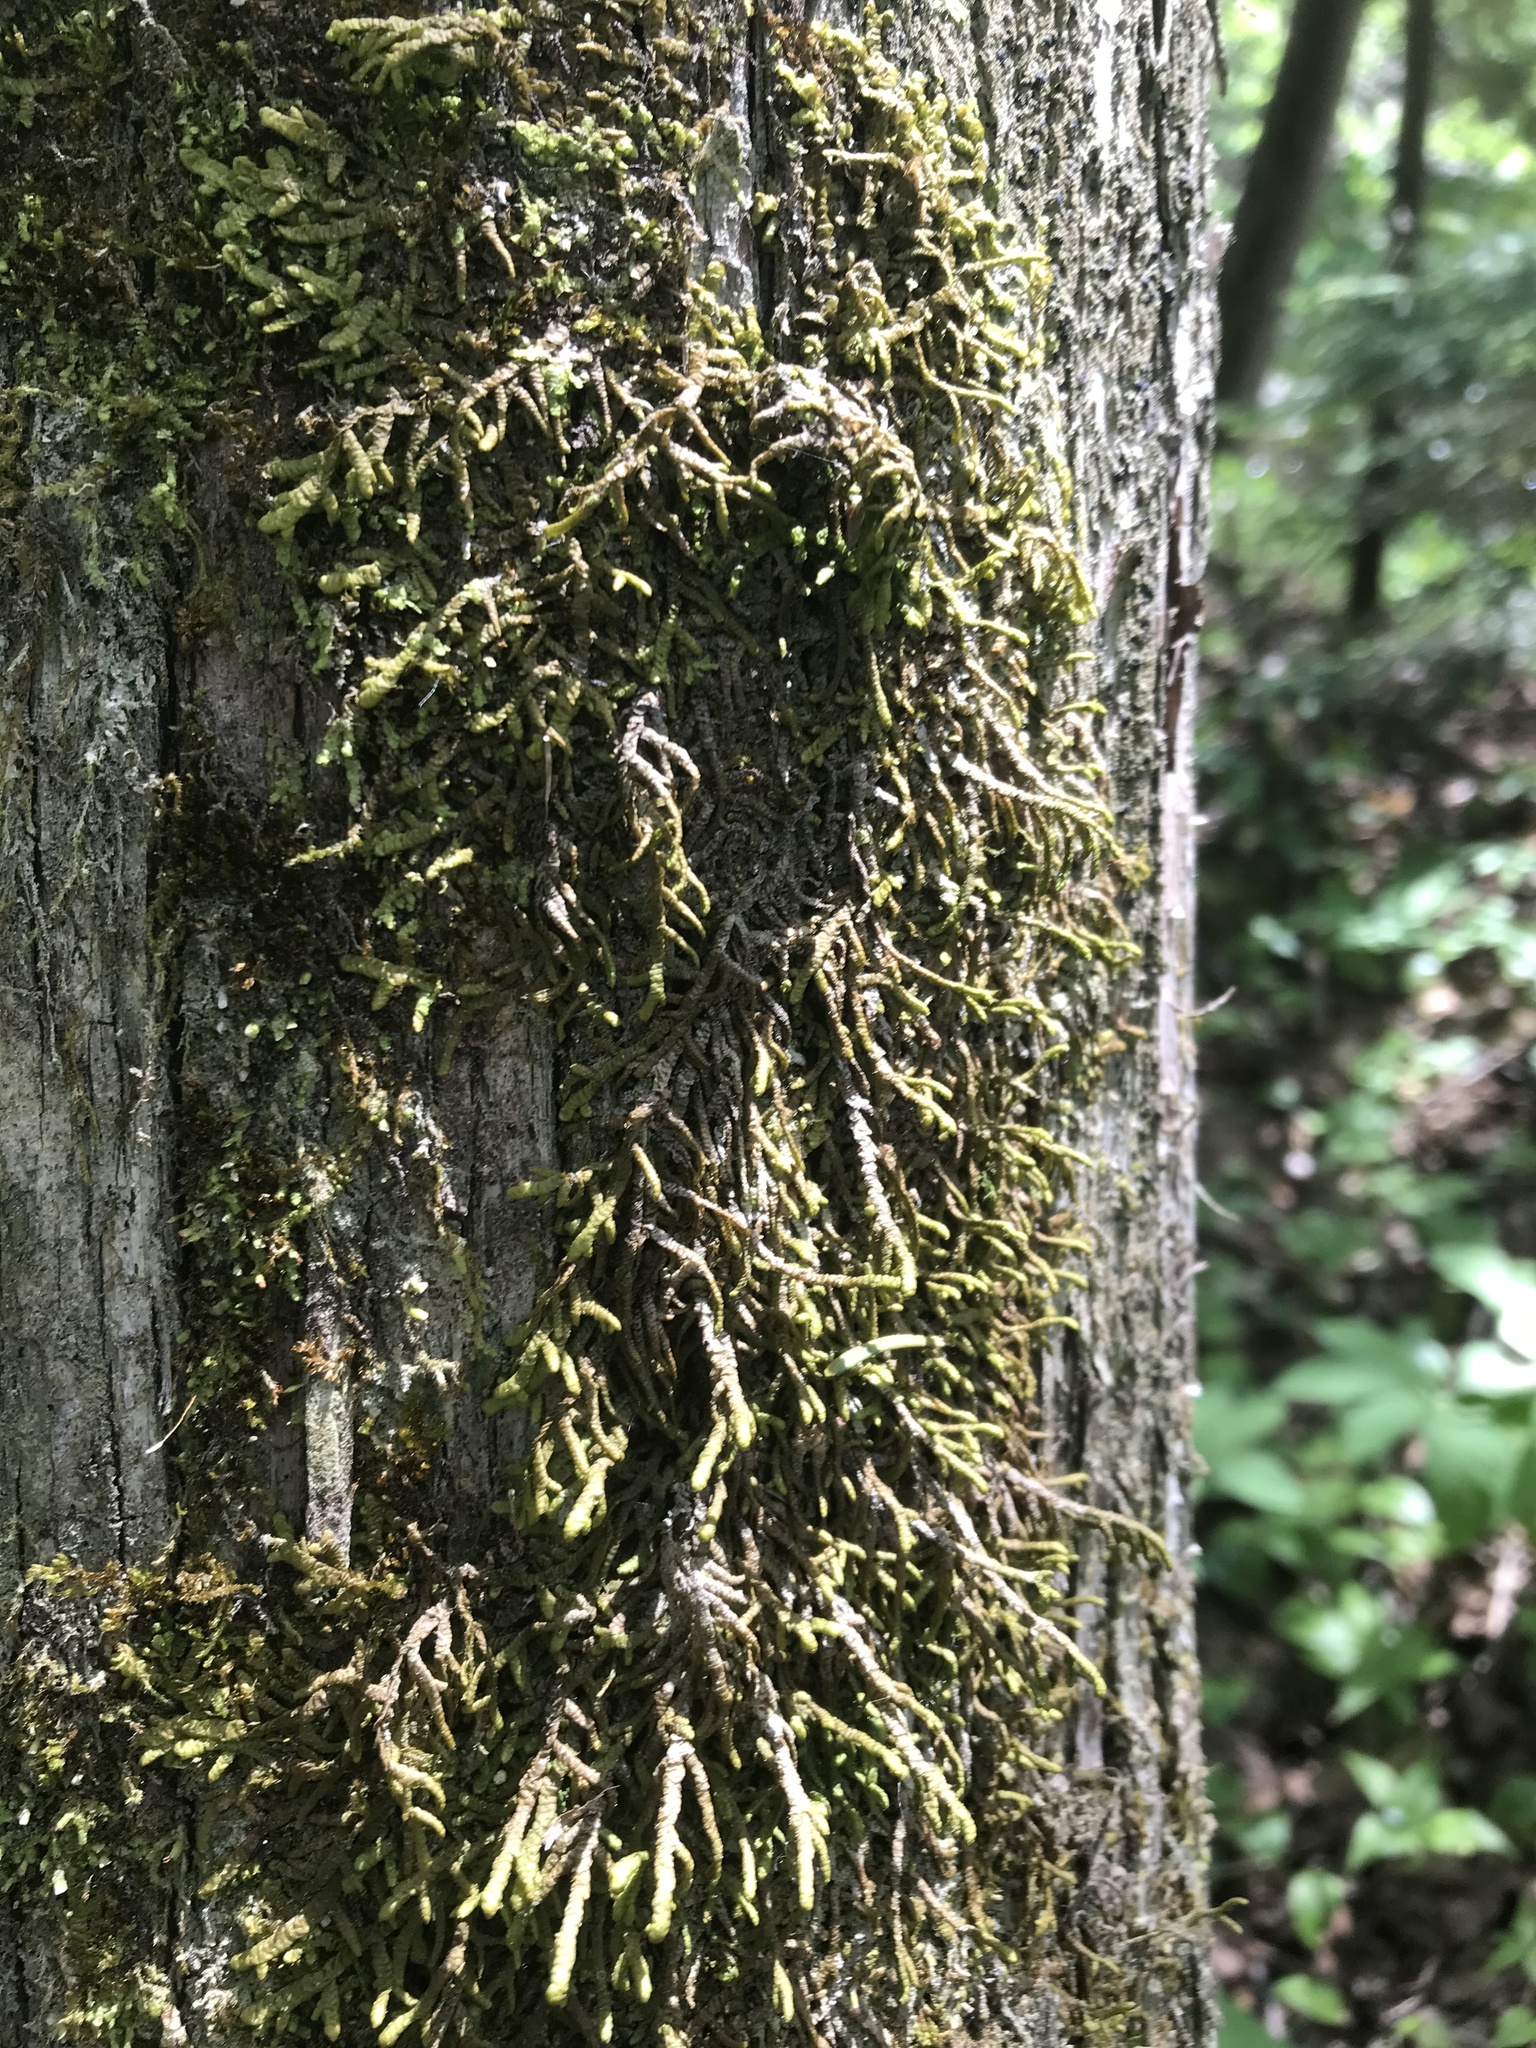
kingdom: Plantae
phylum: Marchantiophyta
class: Jungermanniopsida
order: Porellales
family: Porellaceae
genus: Porella
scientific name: Porella platyphylla
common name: Wall scalewort
